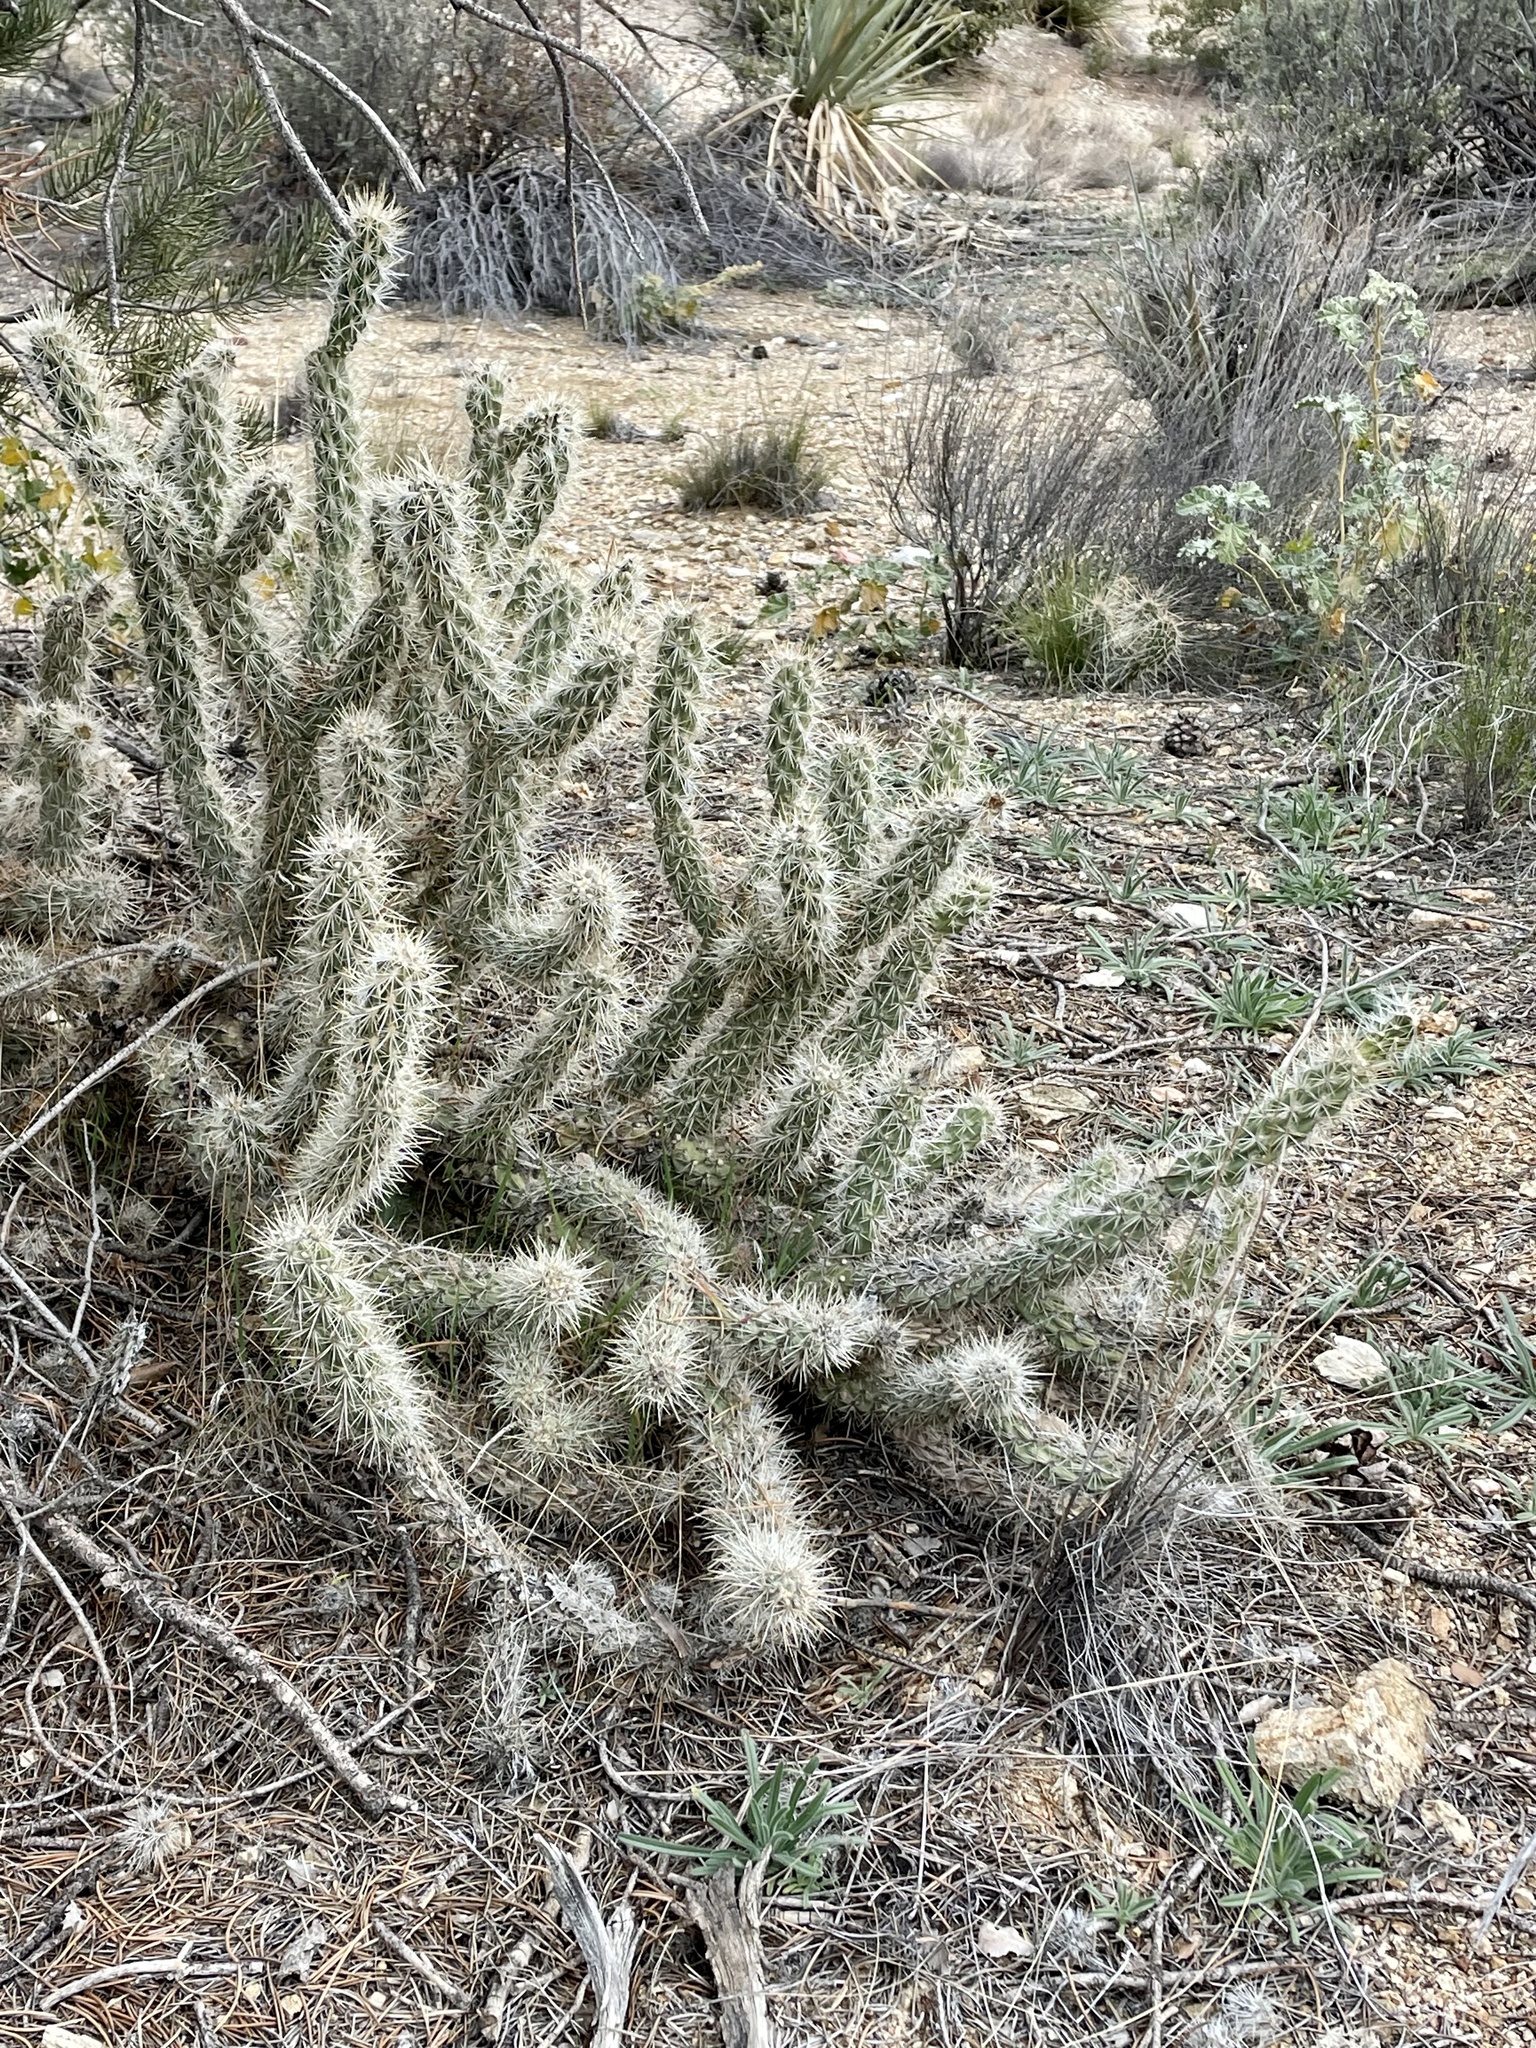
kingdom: Plantae
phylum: Tracheophyta
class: Magnoliopsida
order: Caryophyllales
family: Cactaceae
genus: Cylindropuntia
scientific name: Cylindropuntia ganderi
